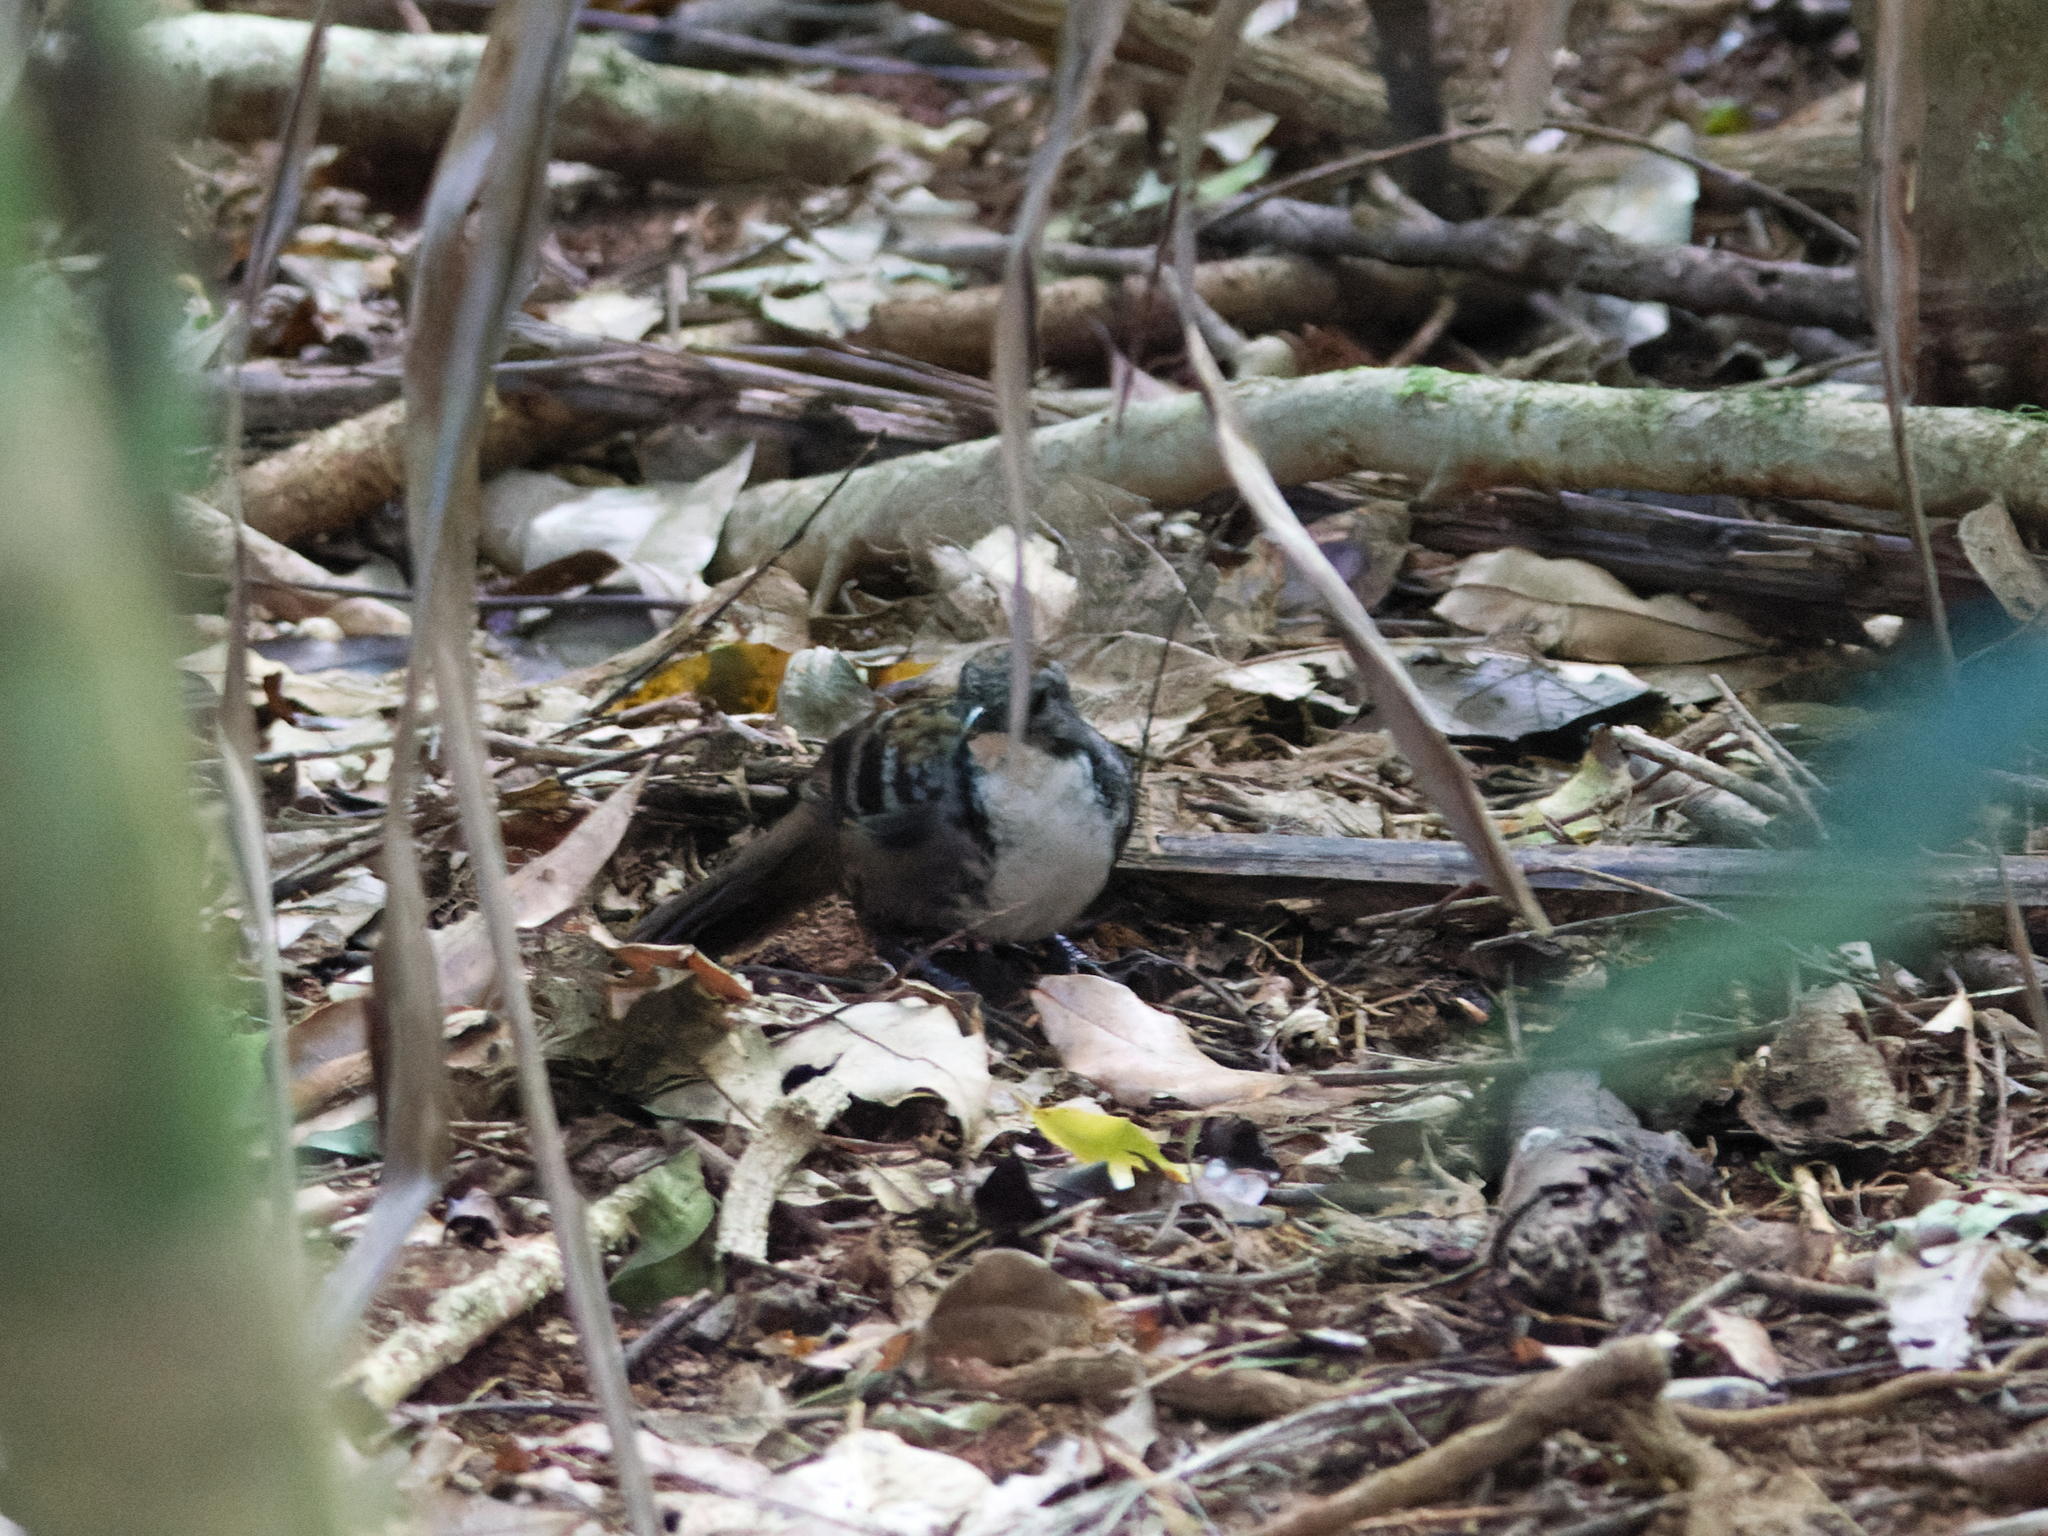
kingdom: Animalia
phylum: Chordata
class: Aves
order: Passeriformes
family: Orthonychidae
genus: Orthonyx
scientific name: Orthonyx temminckii
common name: Australian logrunner
